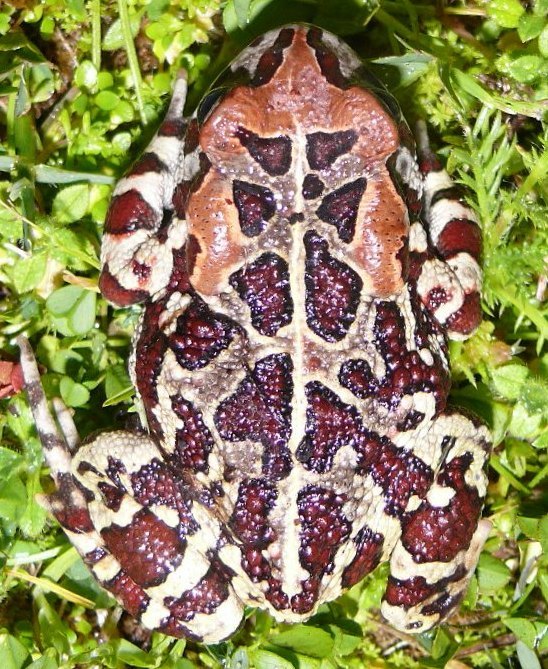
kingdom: Animalia
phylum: Chordata
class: Amphibia
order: Anura
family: Bufonidae
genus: Sclerophrys
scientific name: Sclerophrys pantherina
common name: Panther toad
